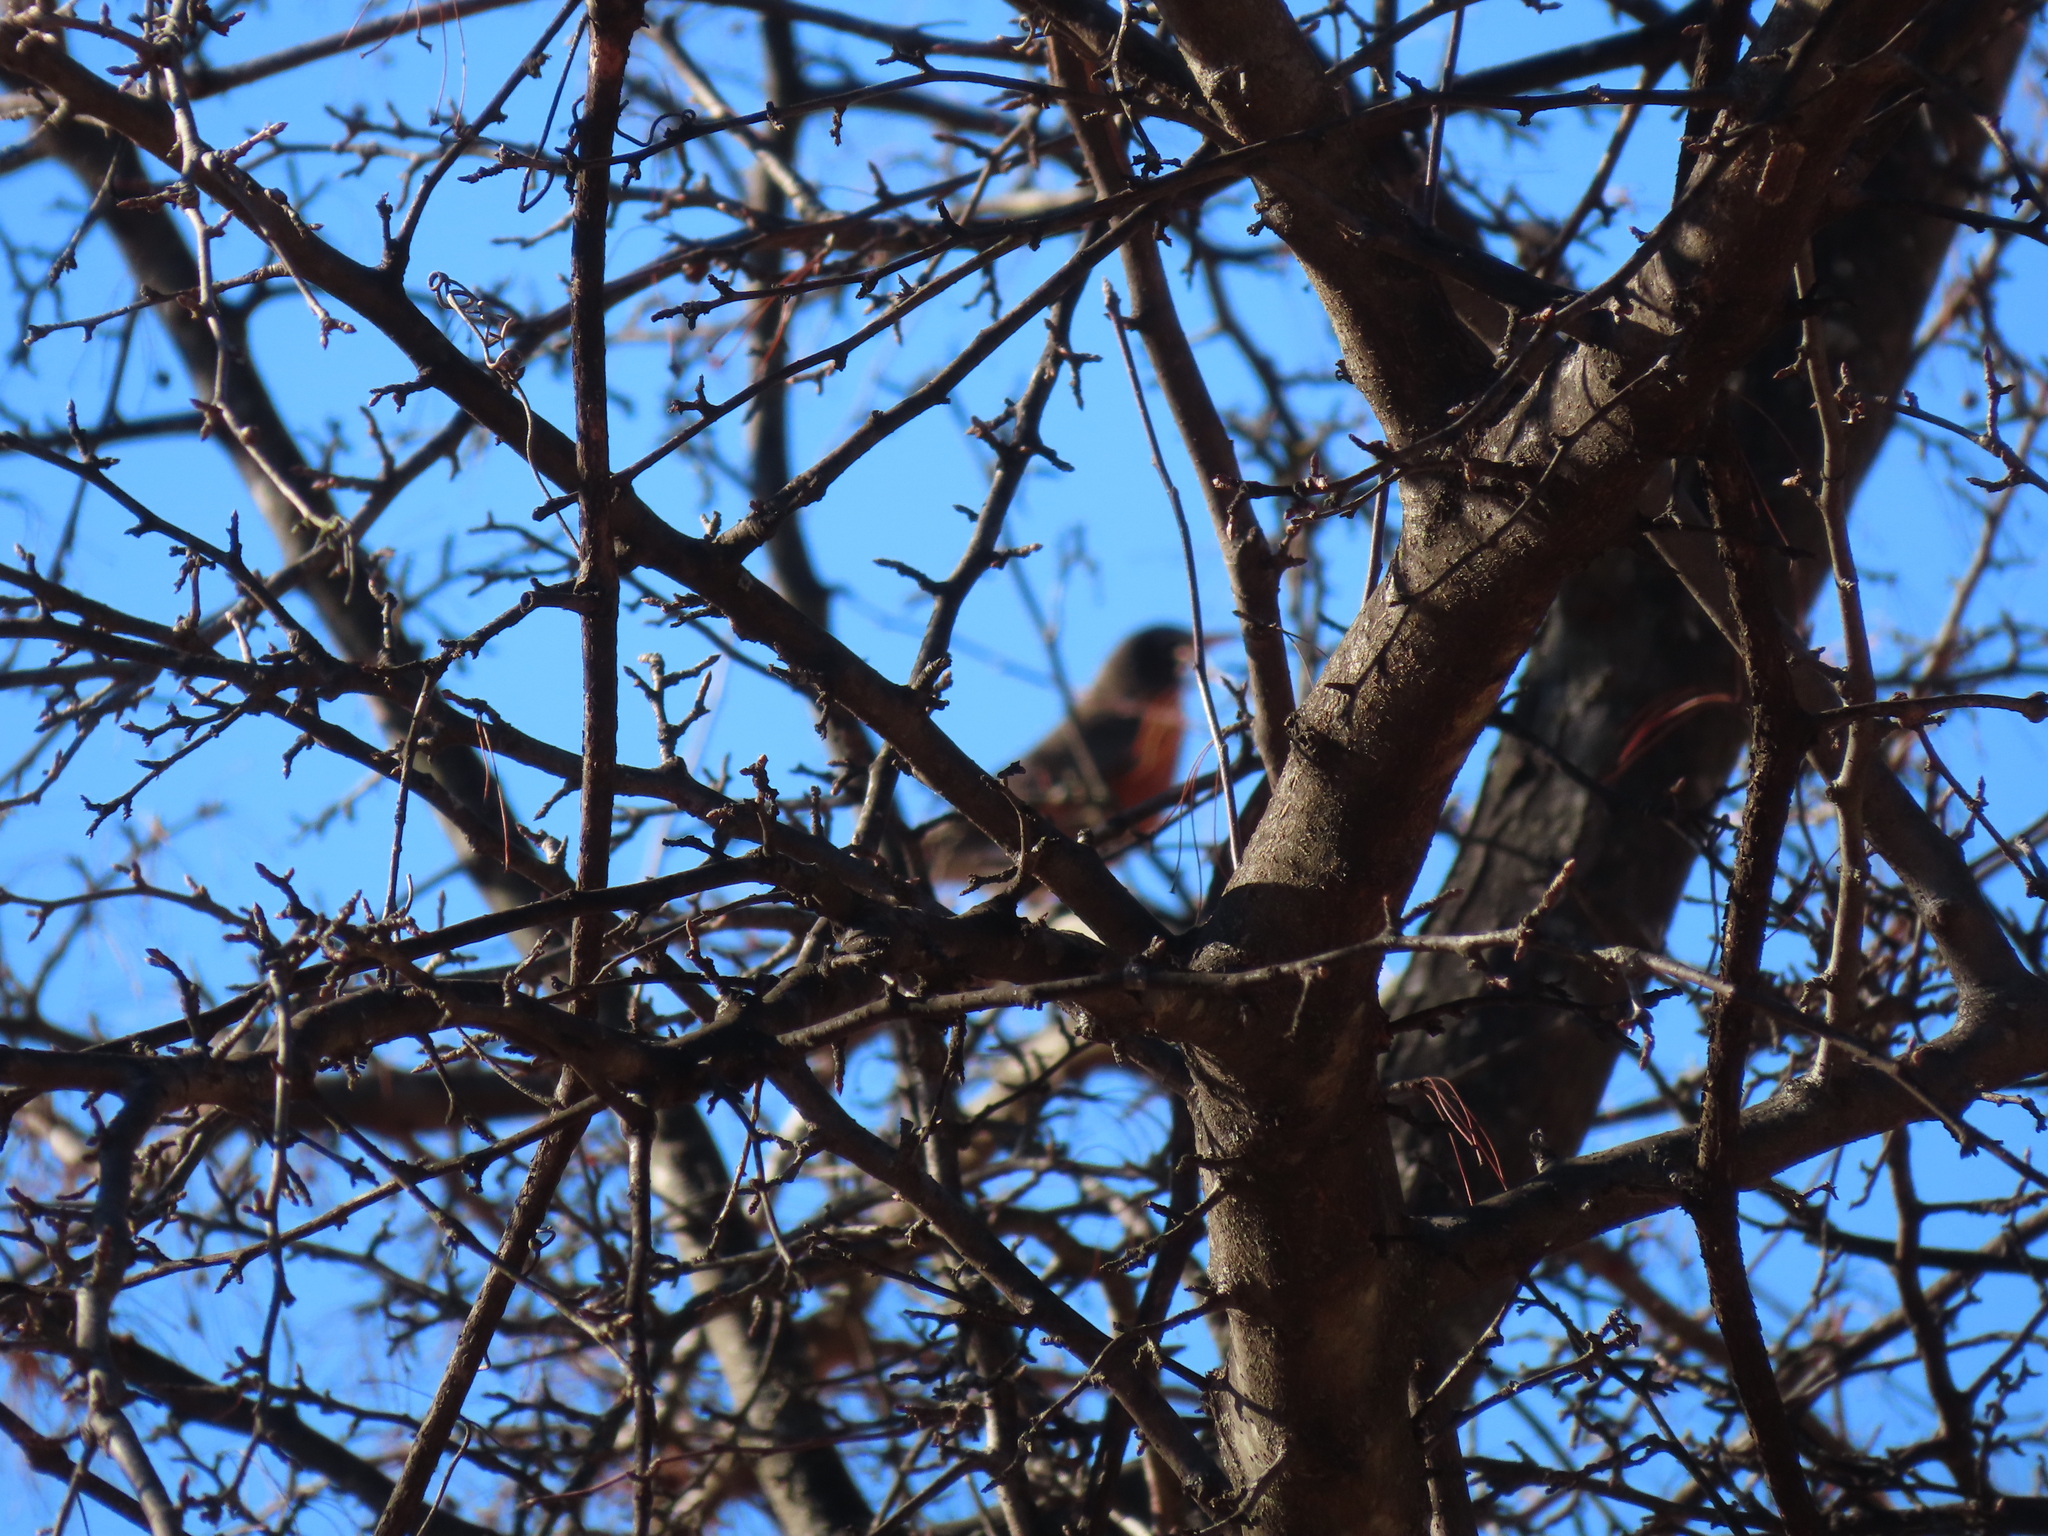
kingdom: Animalia
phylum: Chordata
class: Aves
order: Passeriformes
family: Turdidae
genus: Turdus
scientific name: Turdus migratorius
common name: American robin
